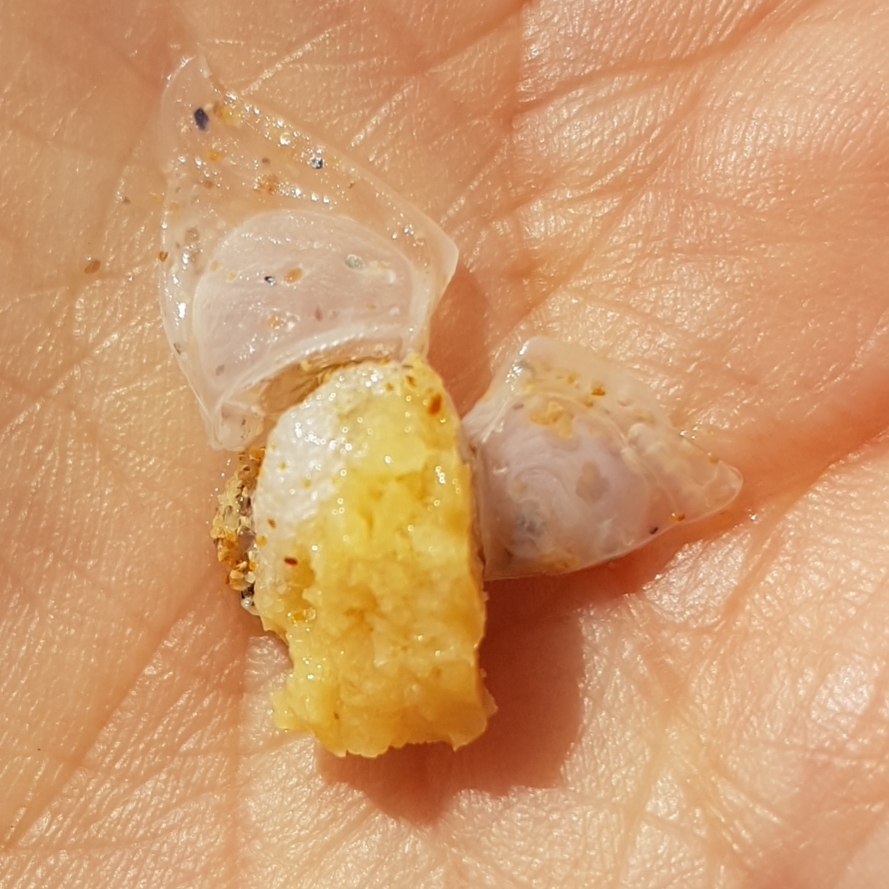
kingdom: Animalia
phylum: Arthropoda
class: Maxillopoda
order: Pedunculata
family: Lepadidae
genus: Dosima
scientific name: Dosima fascicularis
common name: Buoy barnacle
